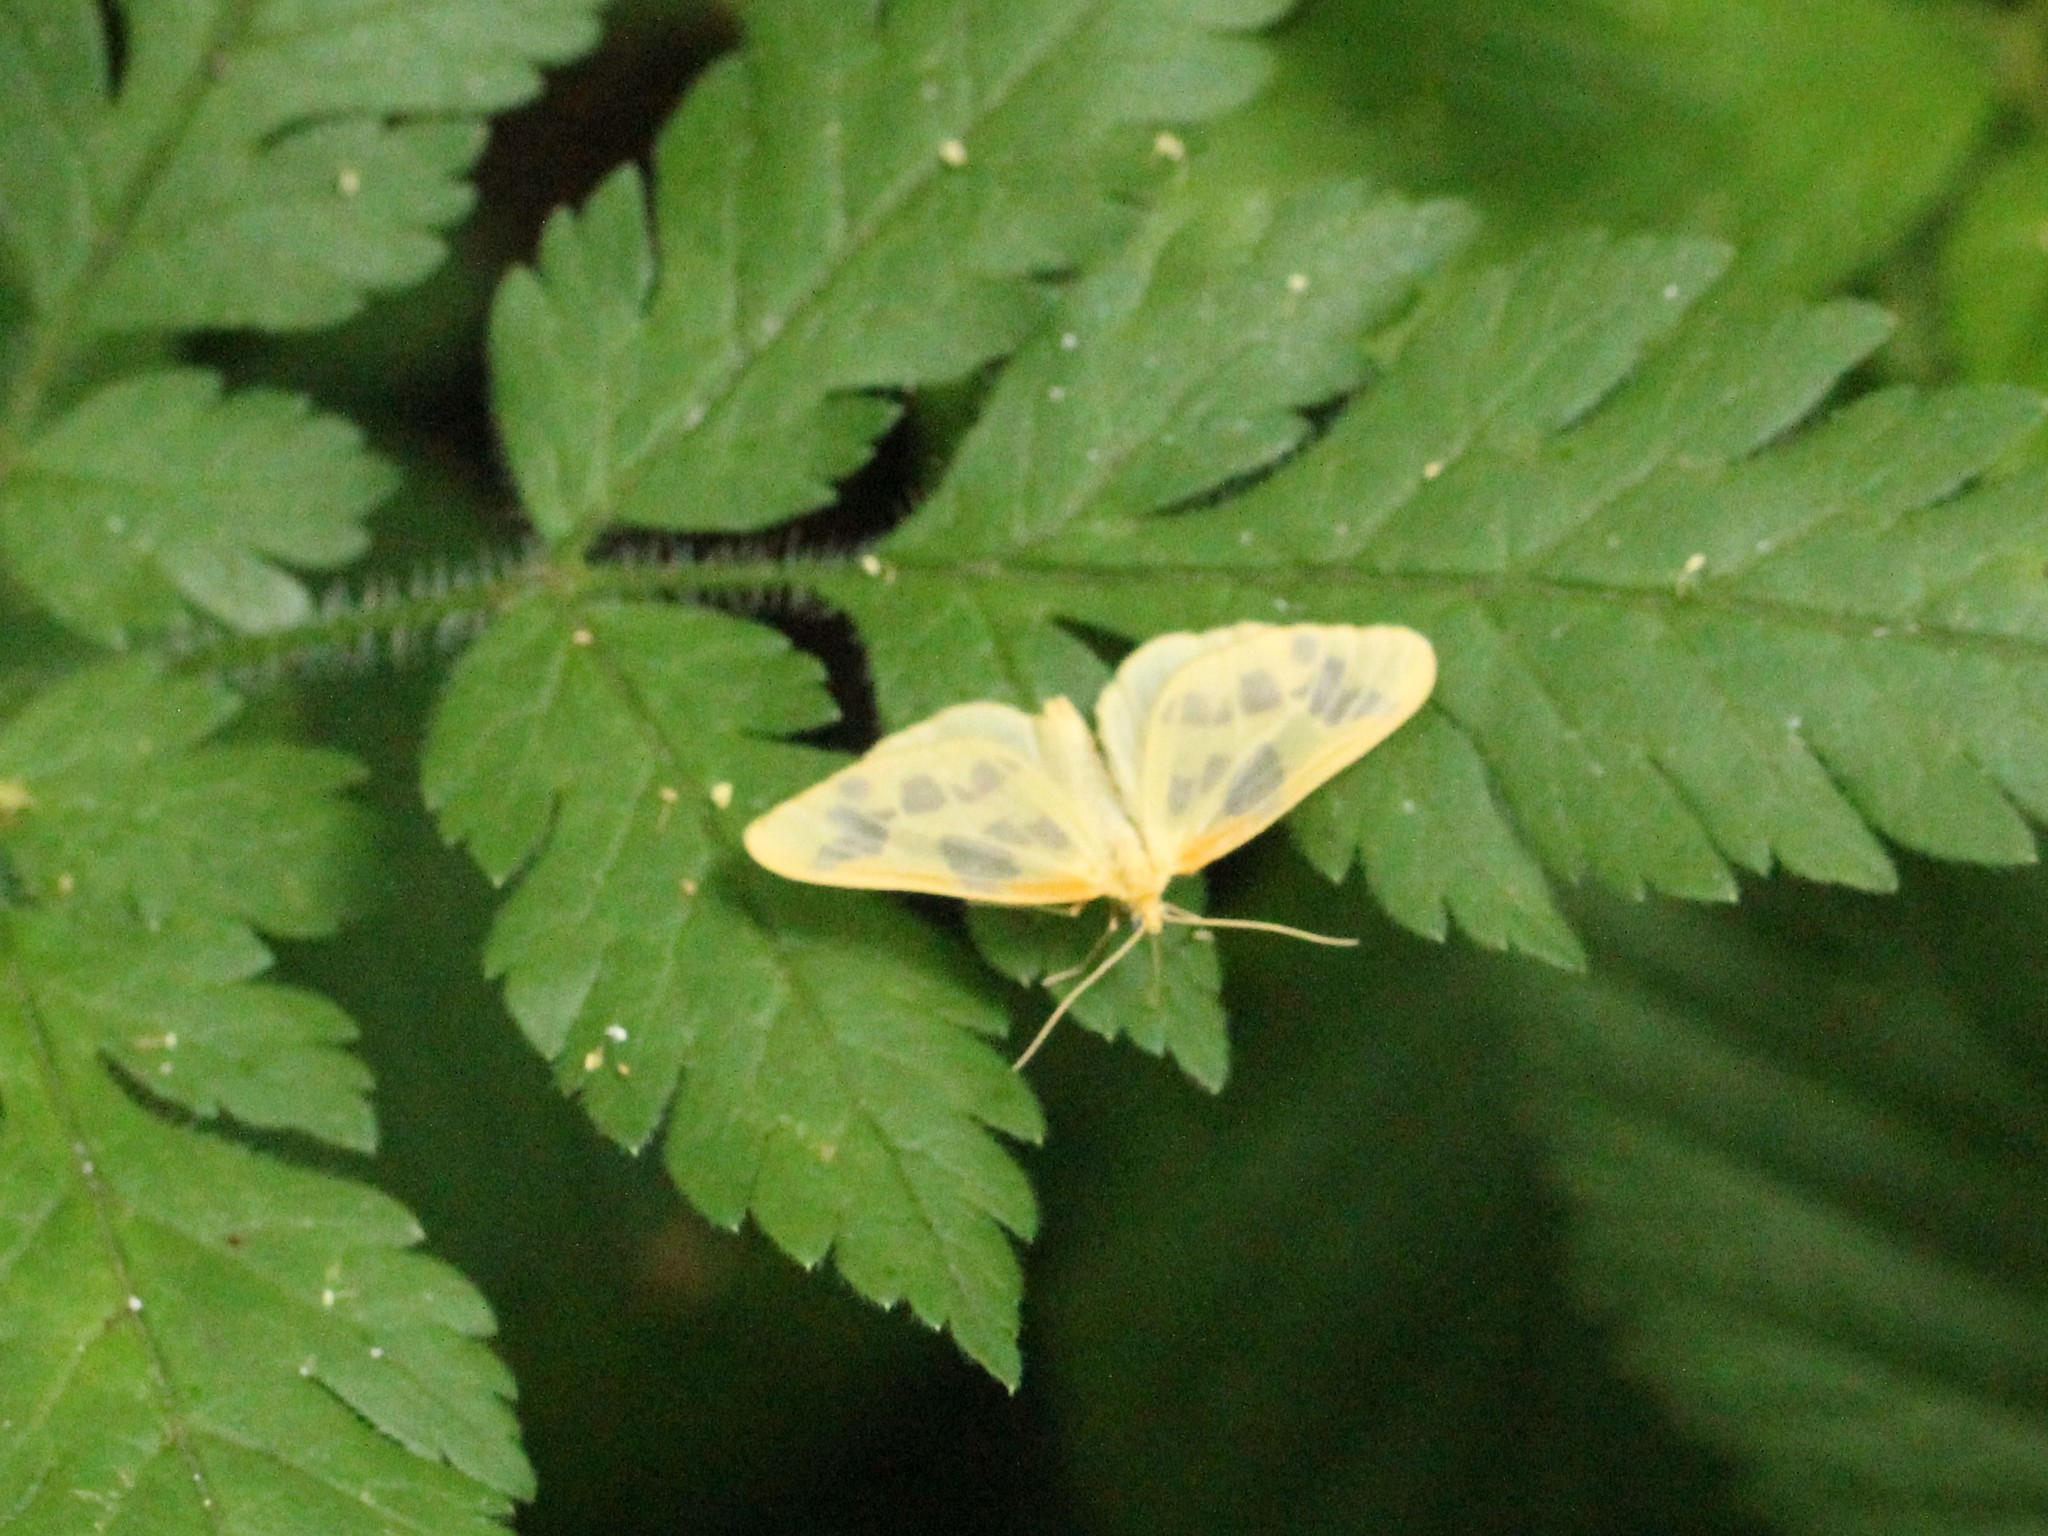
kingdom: Animalia
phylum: Arthropoda
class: Insecta
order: Lepidoptera
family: Geometridae
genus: Eubaphe
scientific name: Eubaphe mendica
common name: Beggar
